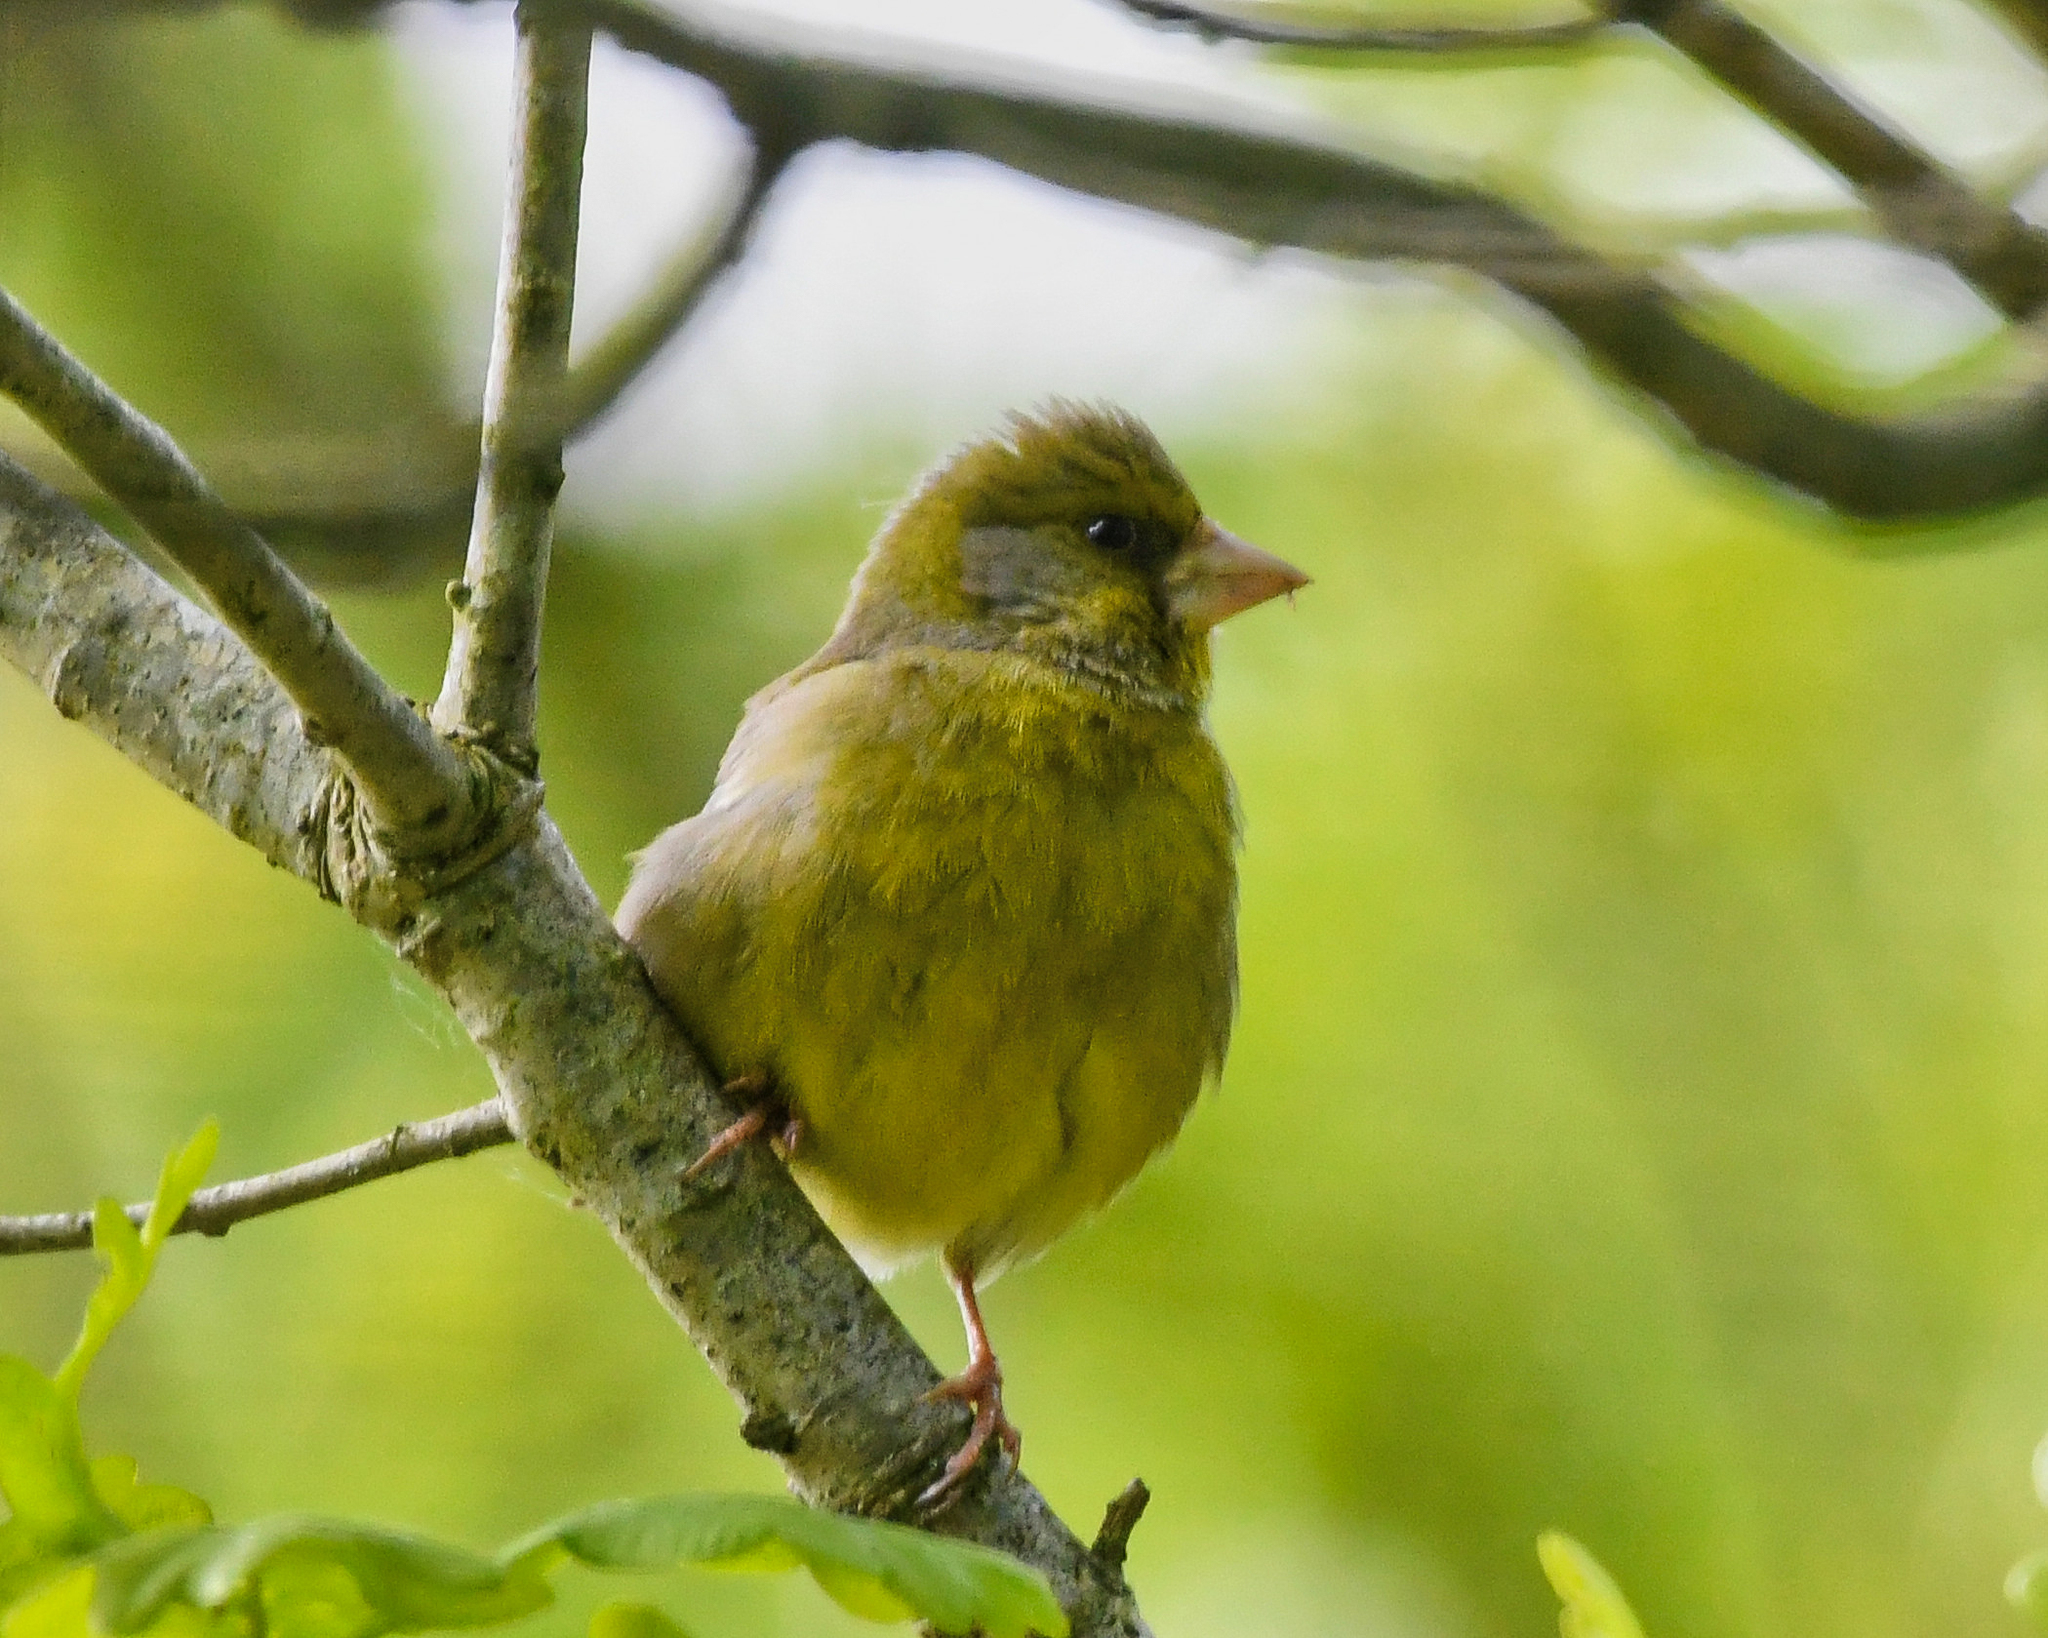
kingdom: Plantae
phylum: Tracheophyta
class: Liliopsida
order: Poales
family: Poaceae
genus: Chloris
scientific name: Chloris chloris
